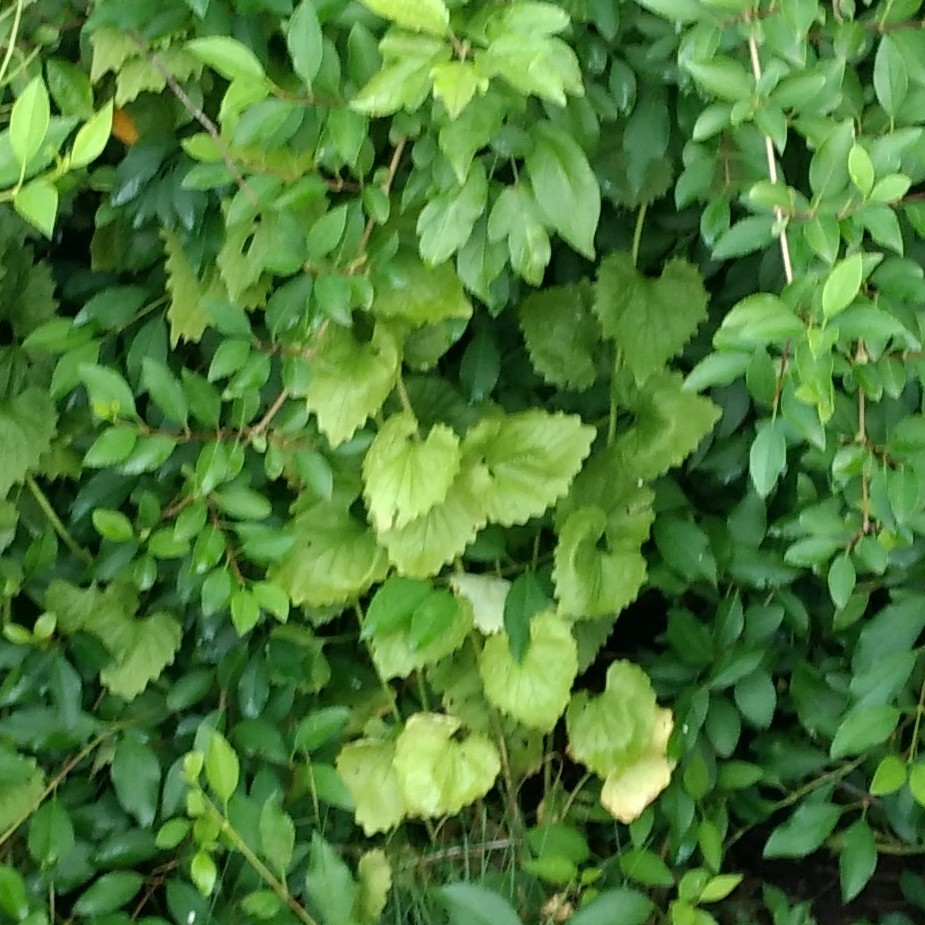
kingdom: Plantae
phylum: Tracheophyta
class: Magnoliopsida
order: Brassicales
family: Brassicaceae
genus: Alliaria
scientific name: Alliaria petiolata
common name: Garlic mustard
